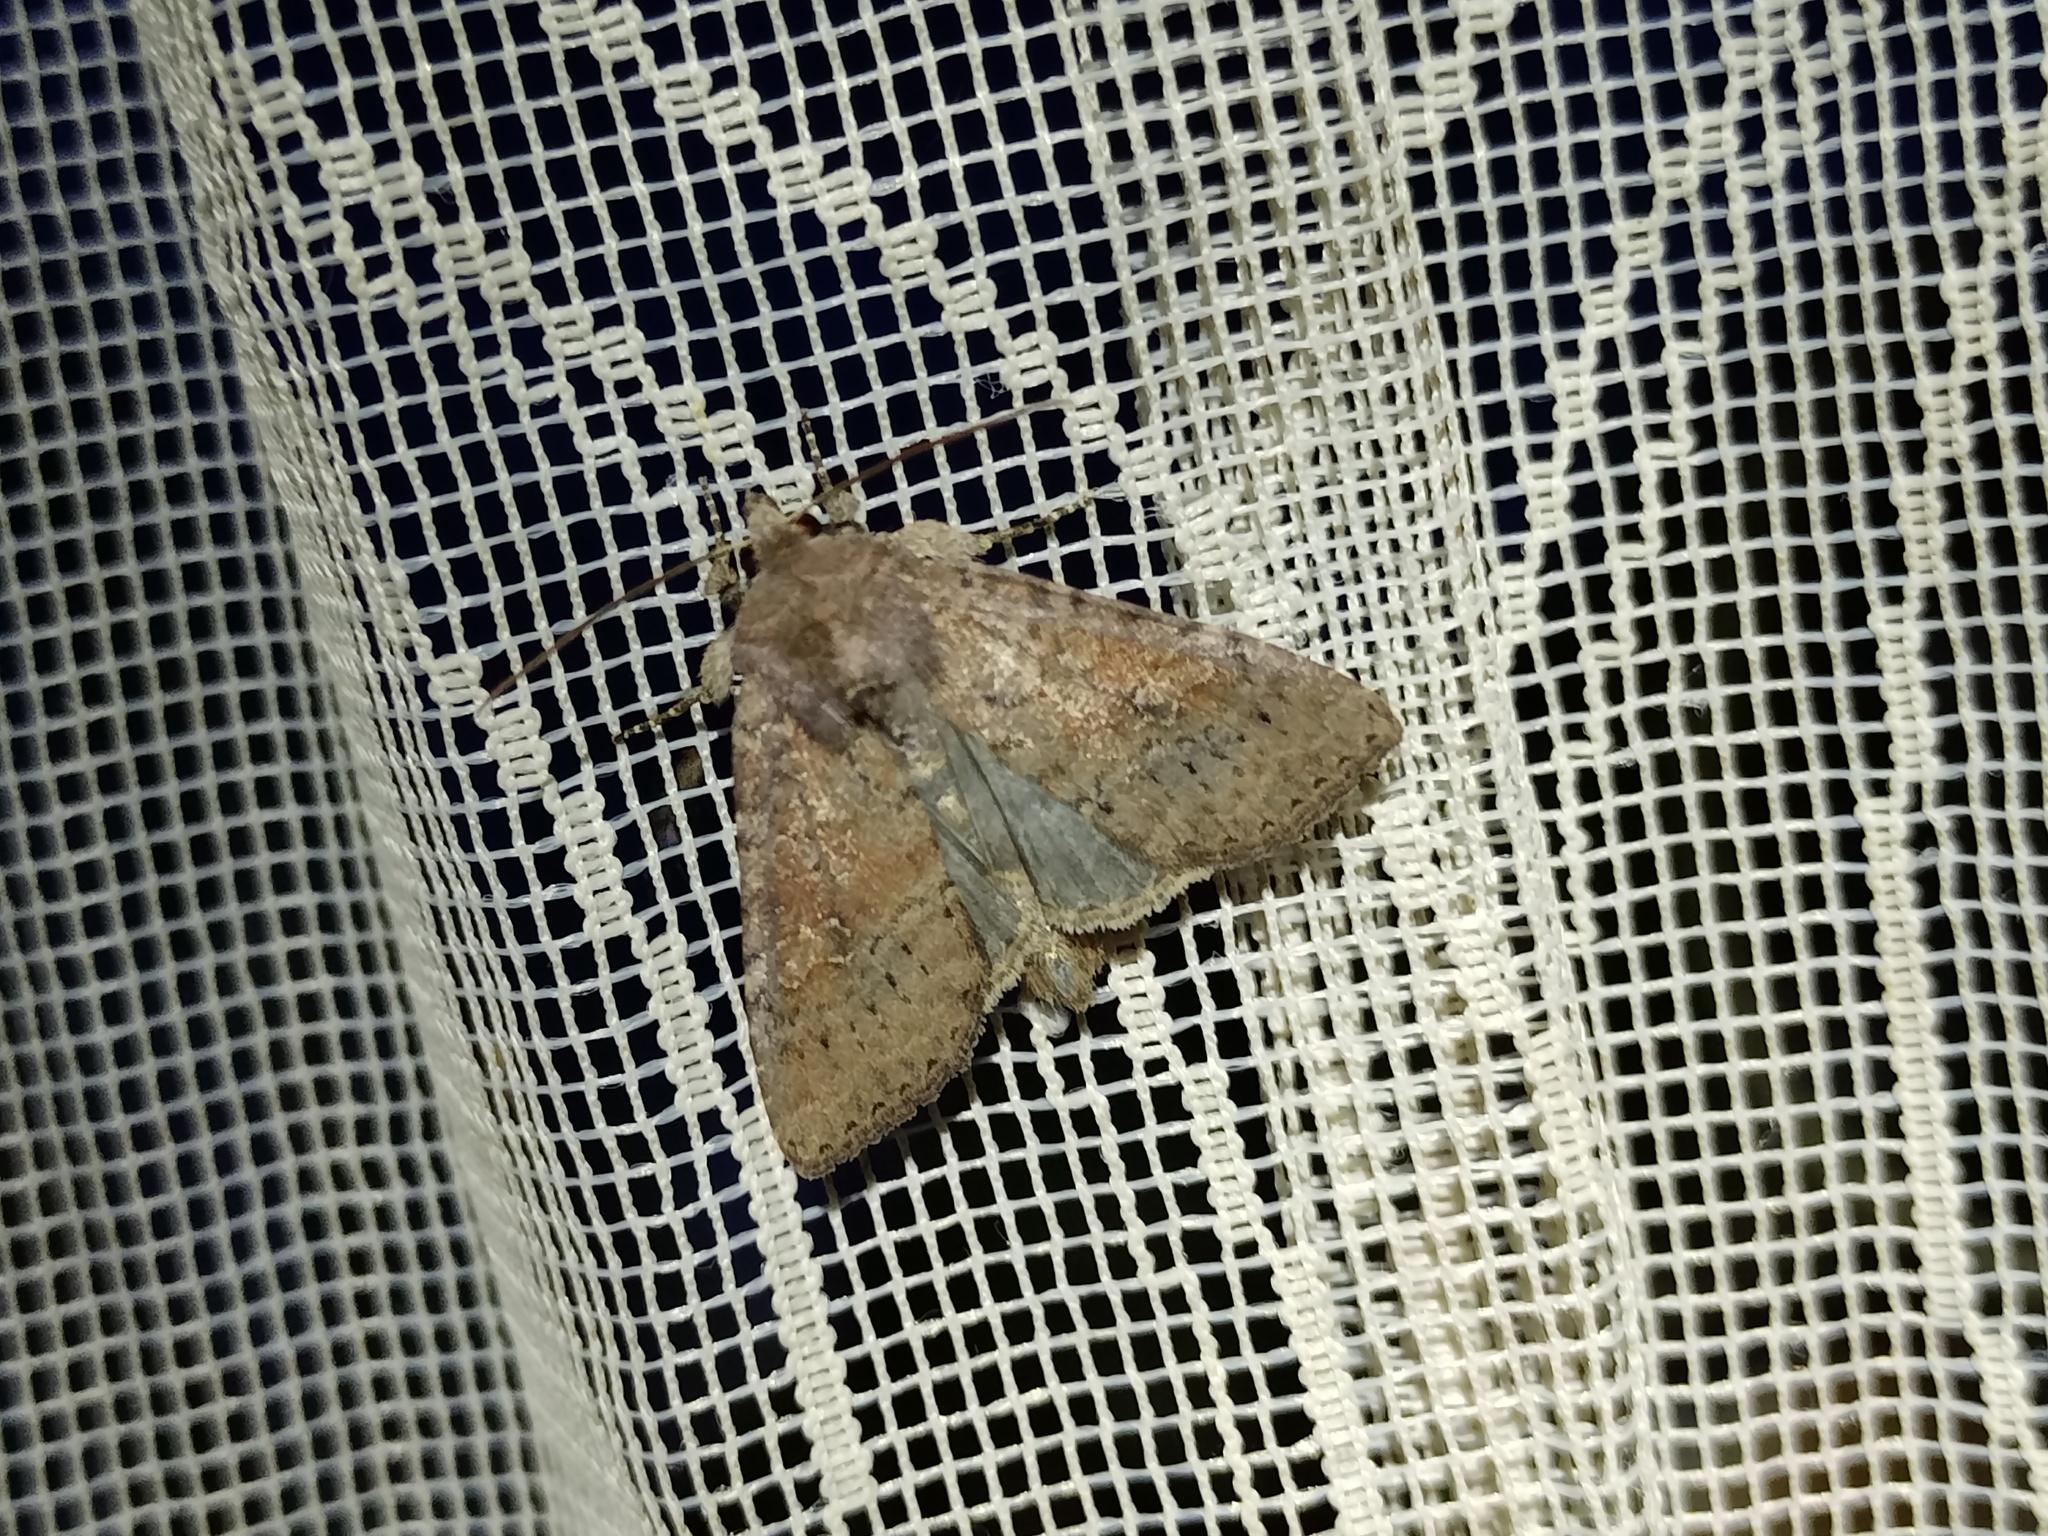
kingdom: Animalia
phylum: Arthropoda
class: Insecta
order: Lepidoptera
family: Noctuidae
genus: Parastichtis
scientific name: Parastichtis suspecta
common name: Suspected
